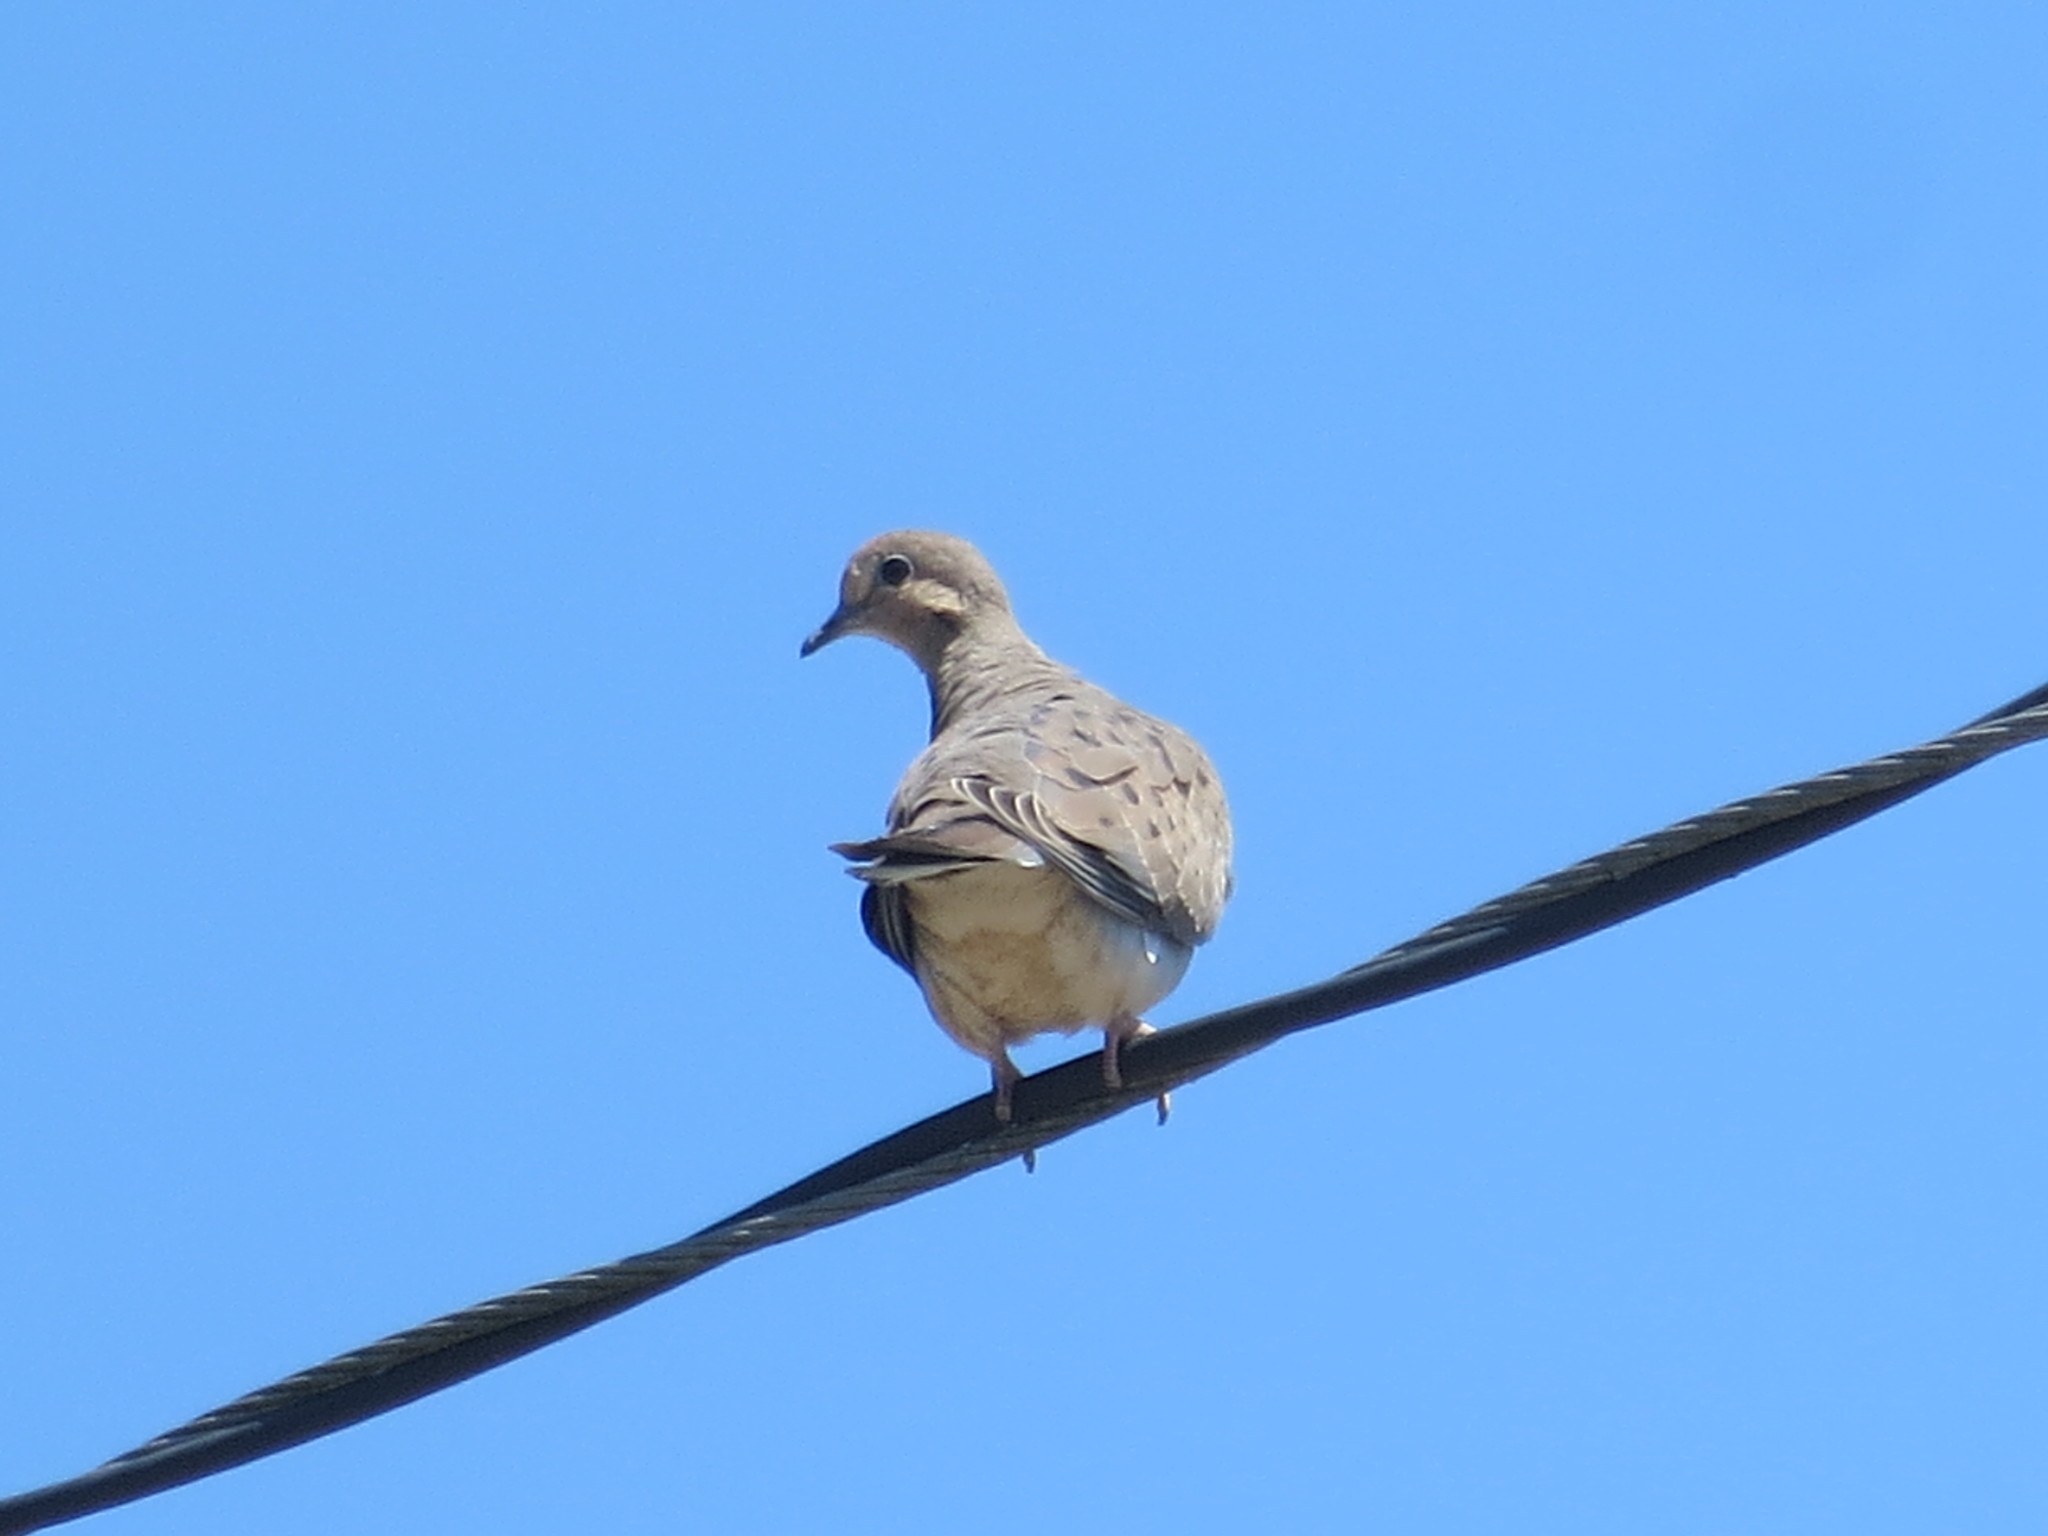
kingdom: Animalia
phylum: Chordata
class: Aves
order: Columbiformes
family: Columbidae
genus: Zenaida
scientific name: Zenaida macroura
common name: Mourning dove
